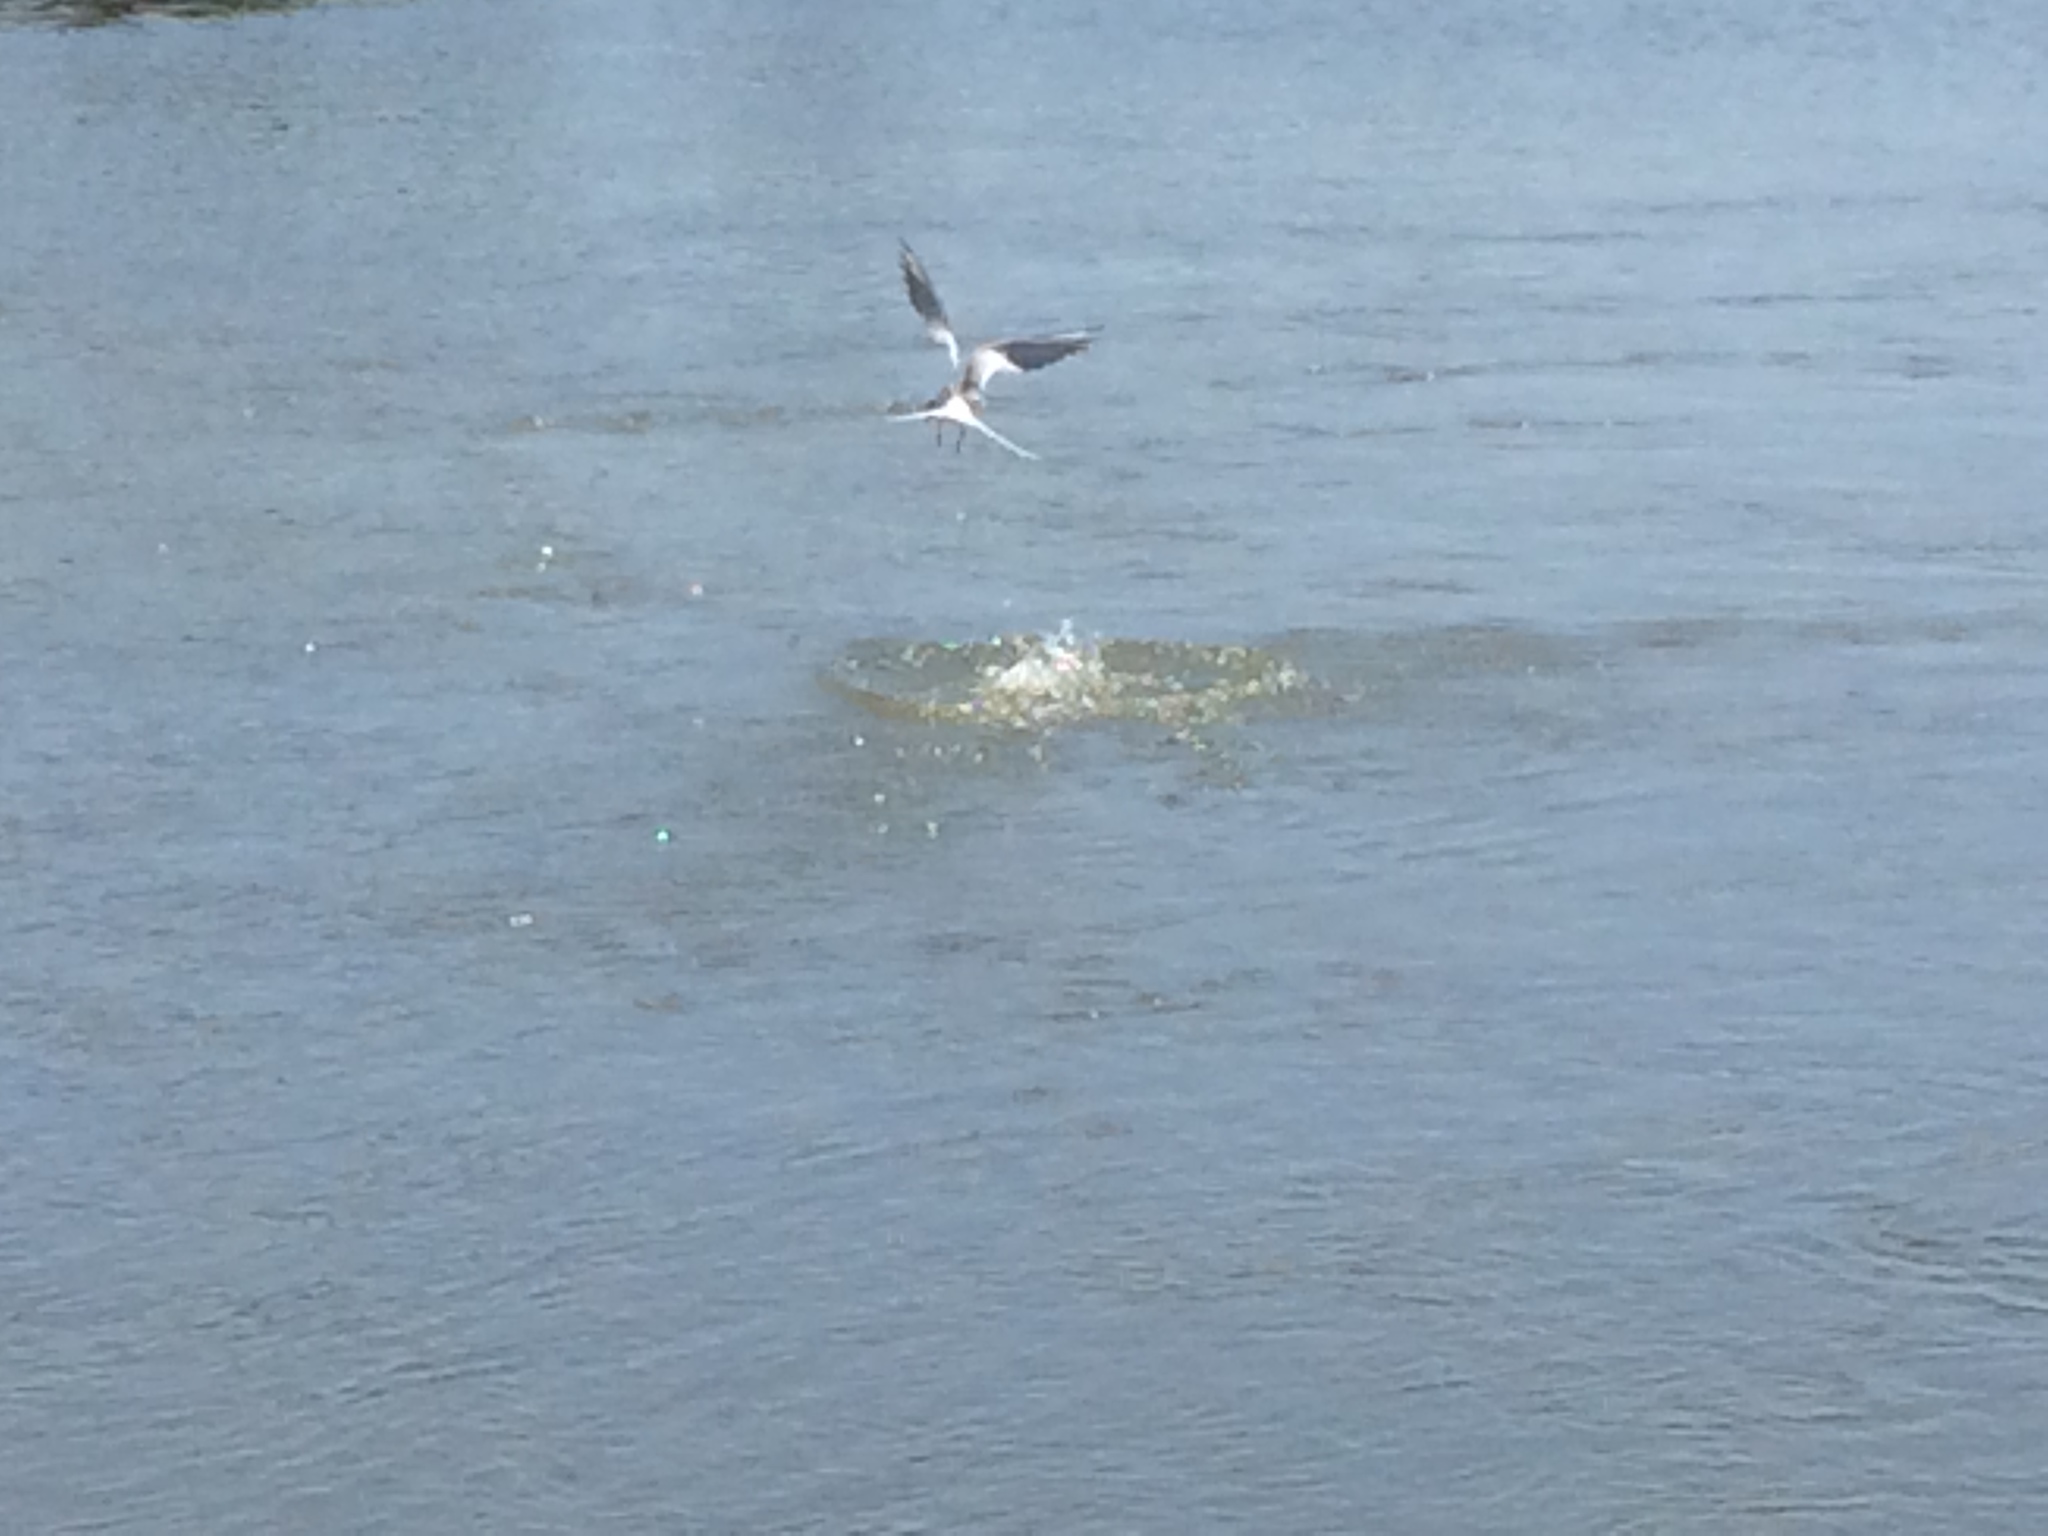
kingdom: Animalia
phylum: Chordata
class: Aves
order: Charadriiformes
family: Laridae
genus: Sterna
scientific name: Sterna forsteri
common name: Forster's tern
